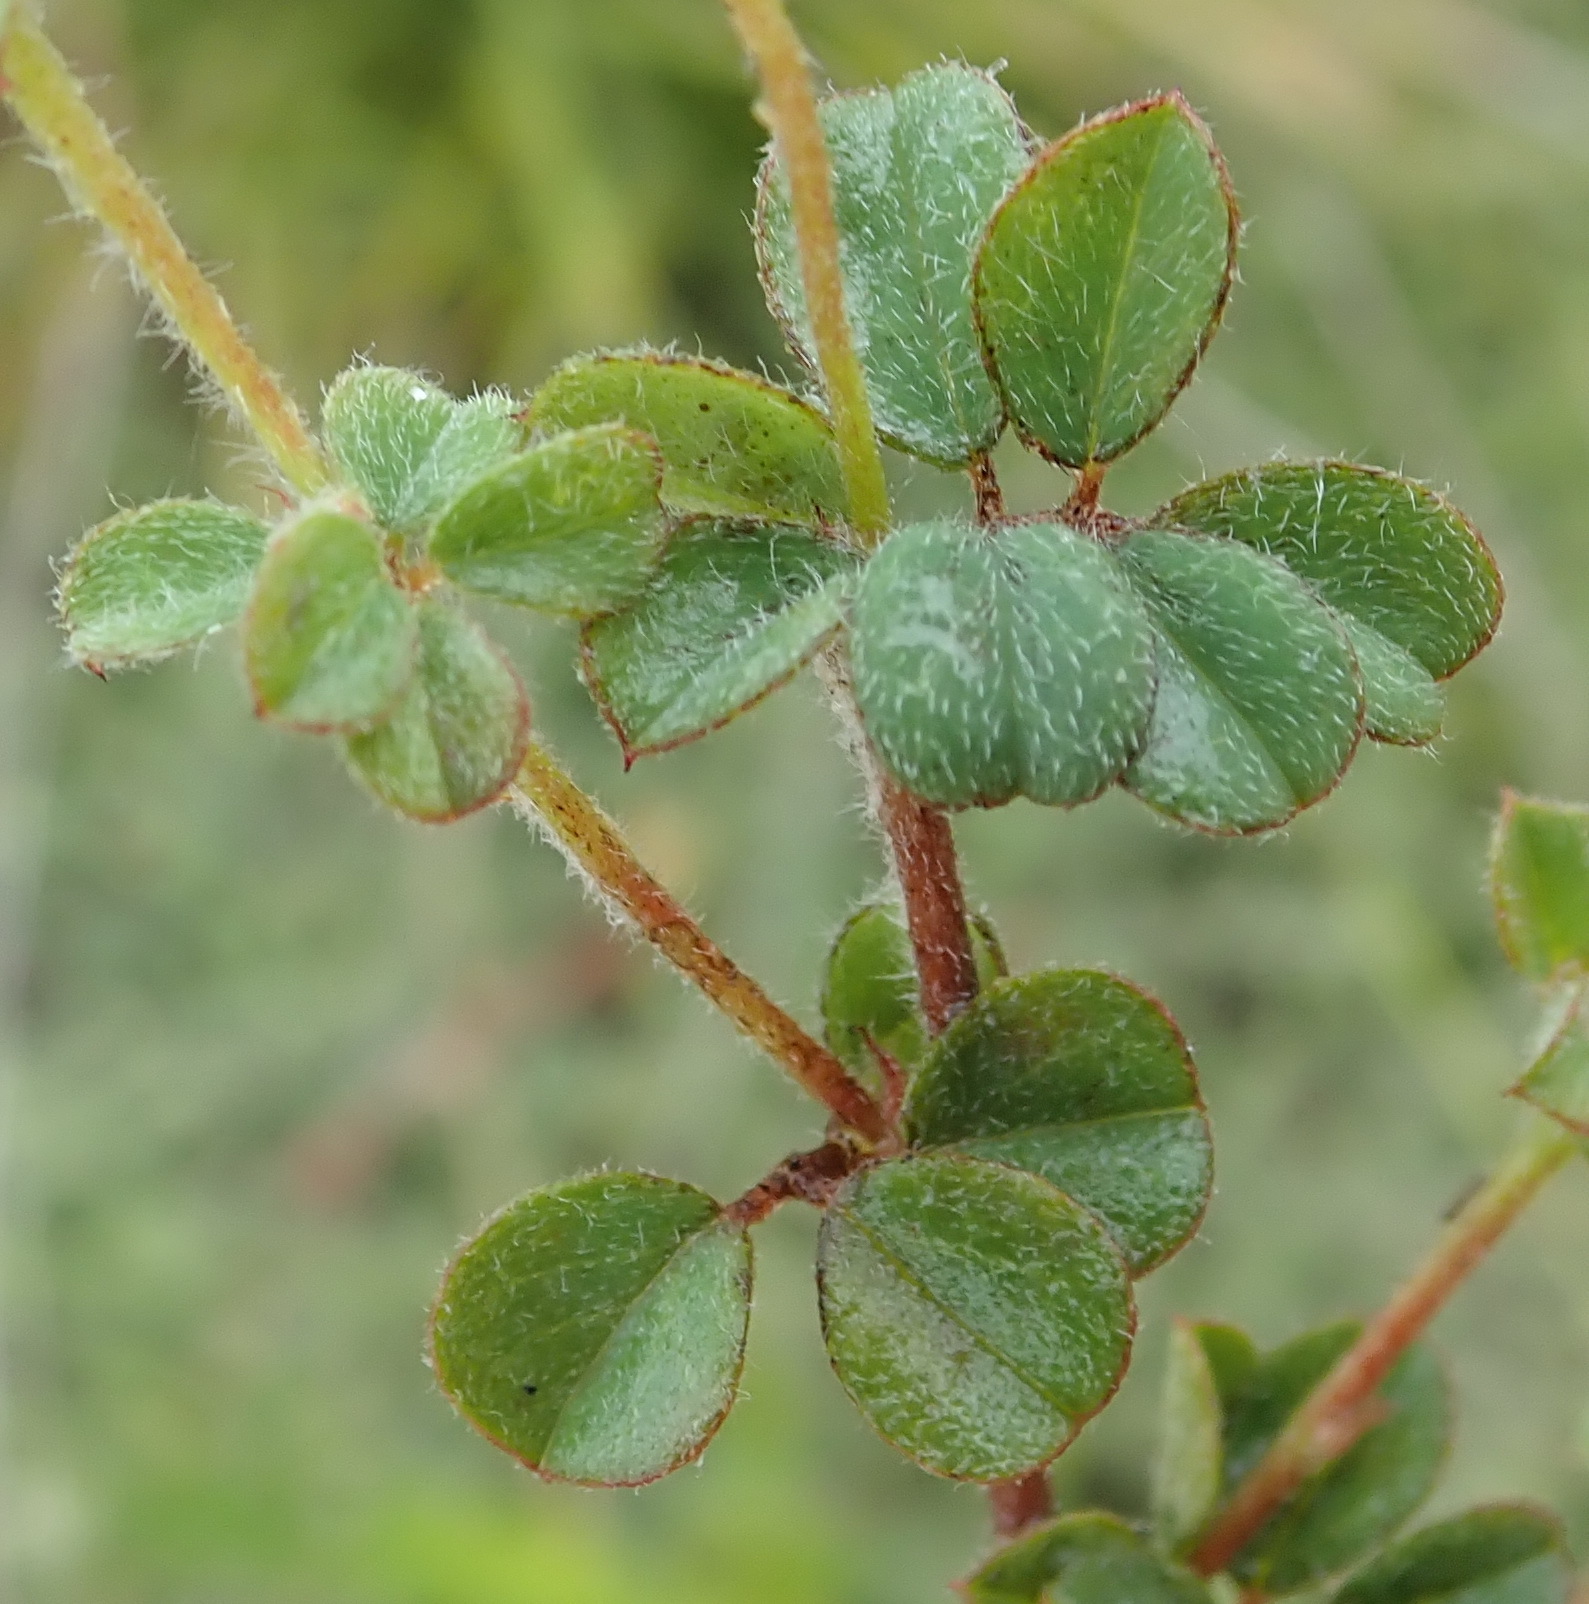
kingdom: Plantae
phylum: Tracheophyta
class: Magnoliopsida
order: Fabales
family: Fabaceae
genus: Indigofera
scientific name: Indigofera alopecuroides
